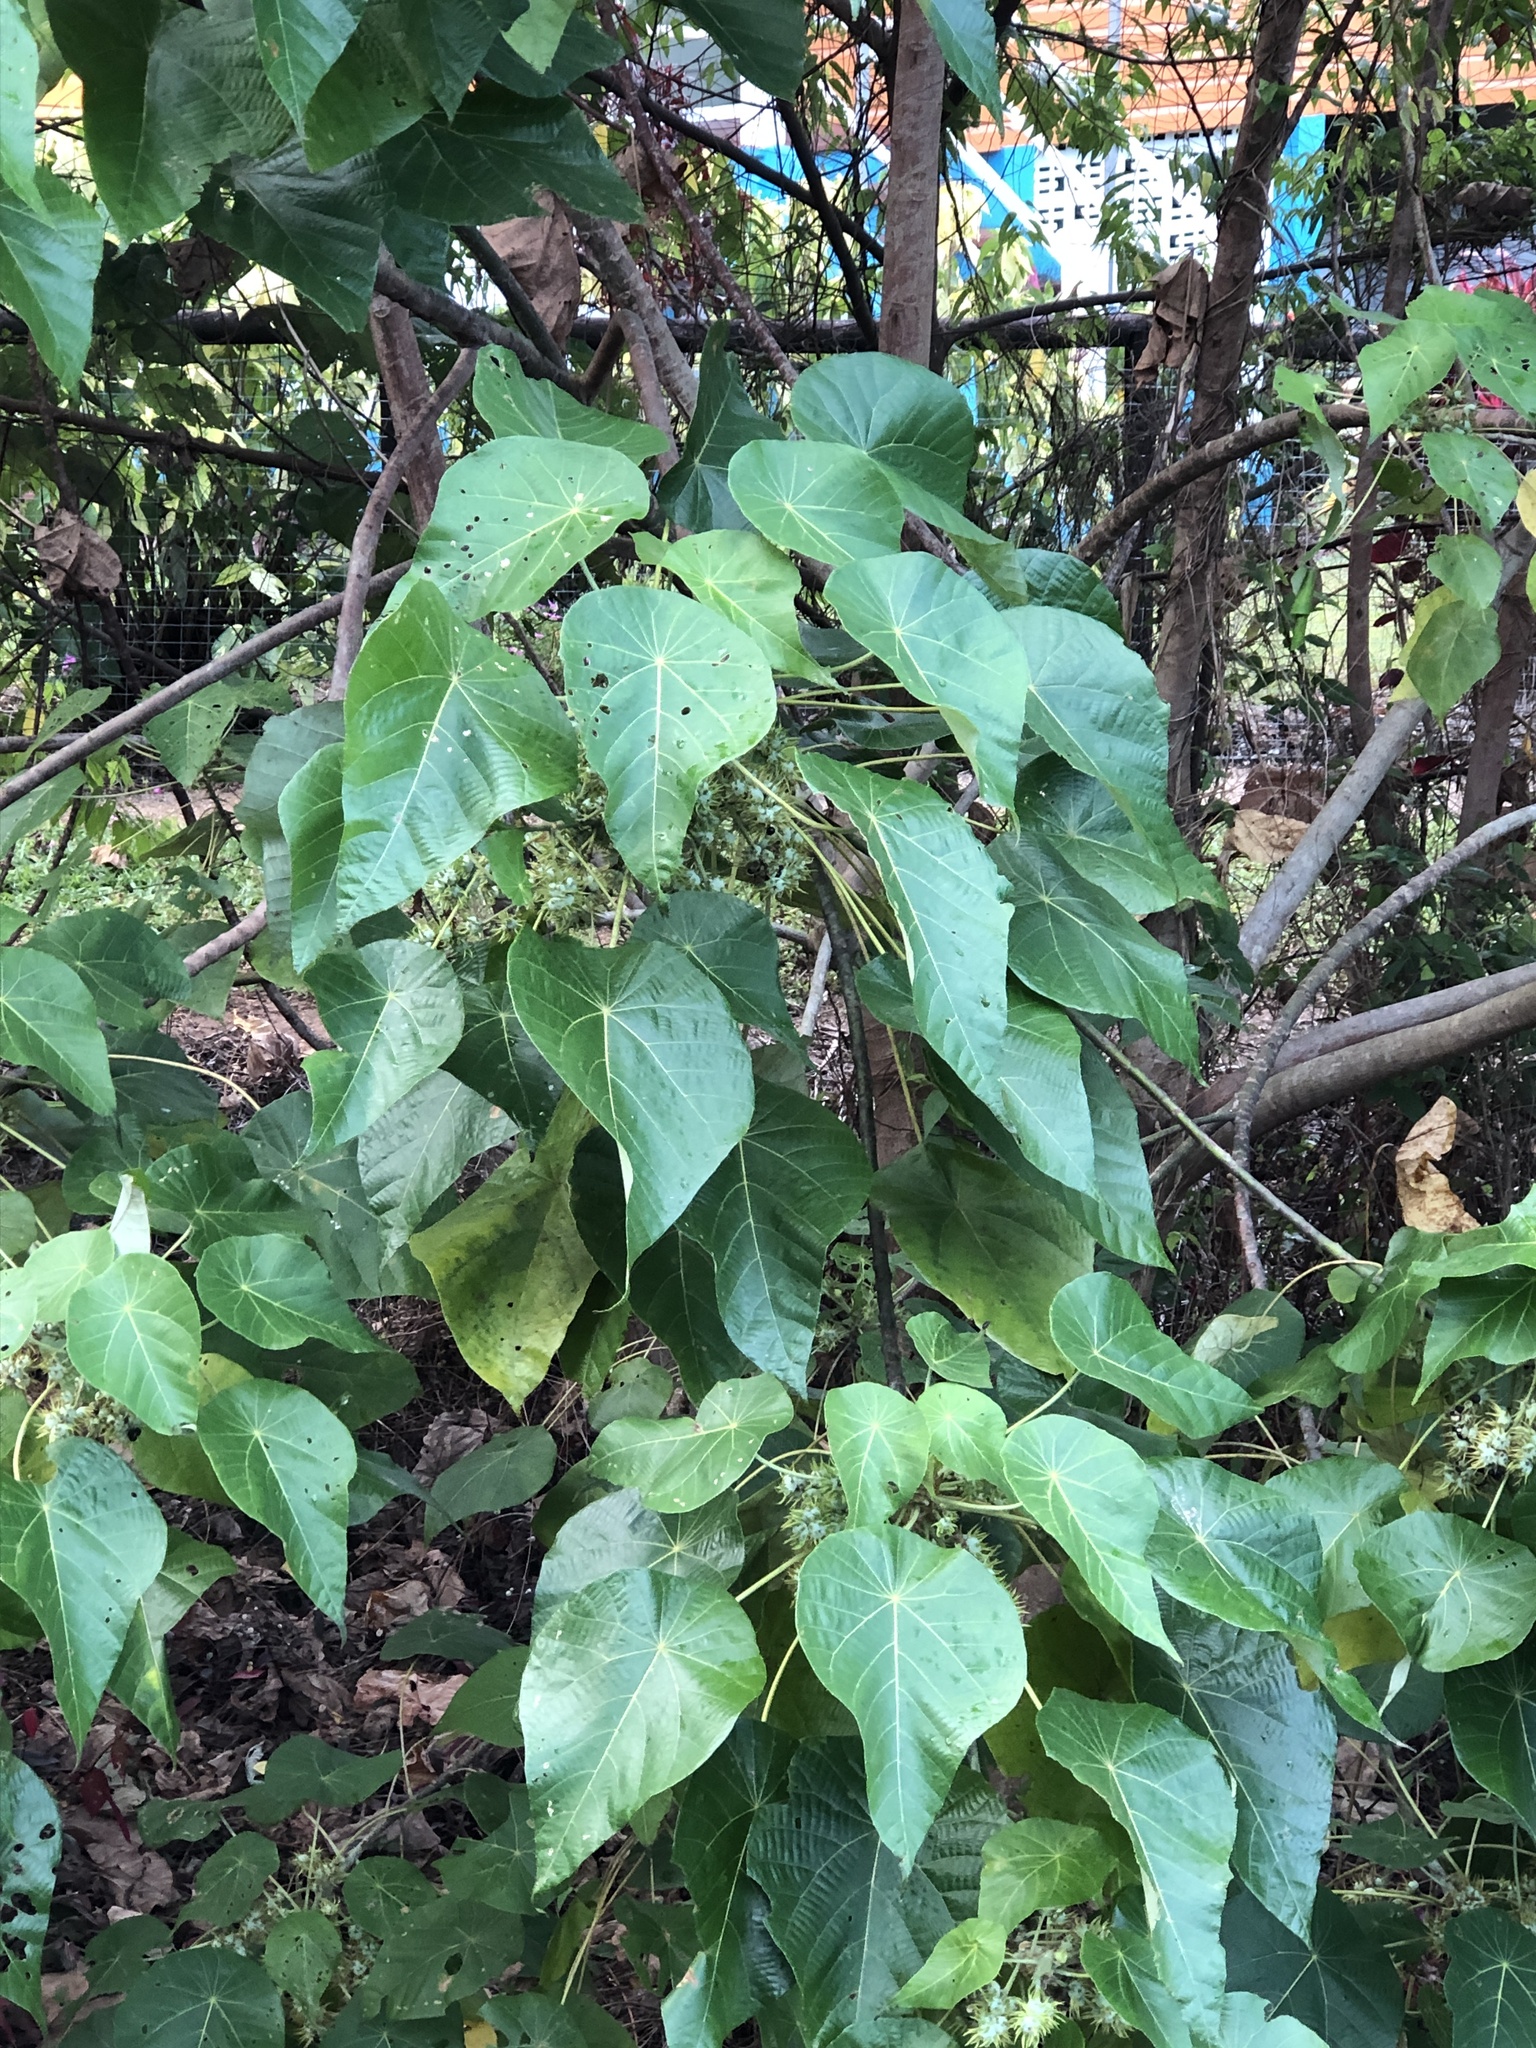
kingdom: Plantae
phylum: Tracheophyta
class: Magnoliopsida
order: Malpighiales
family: Euphorbiaceae
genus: Macaranga
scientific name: Macaranga tanarius
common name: Parasol leaf tree
